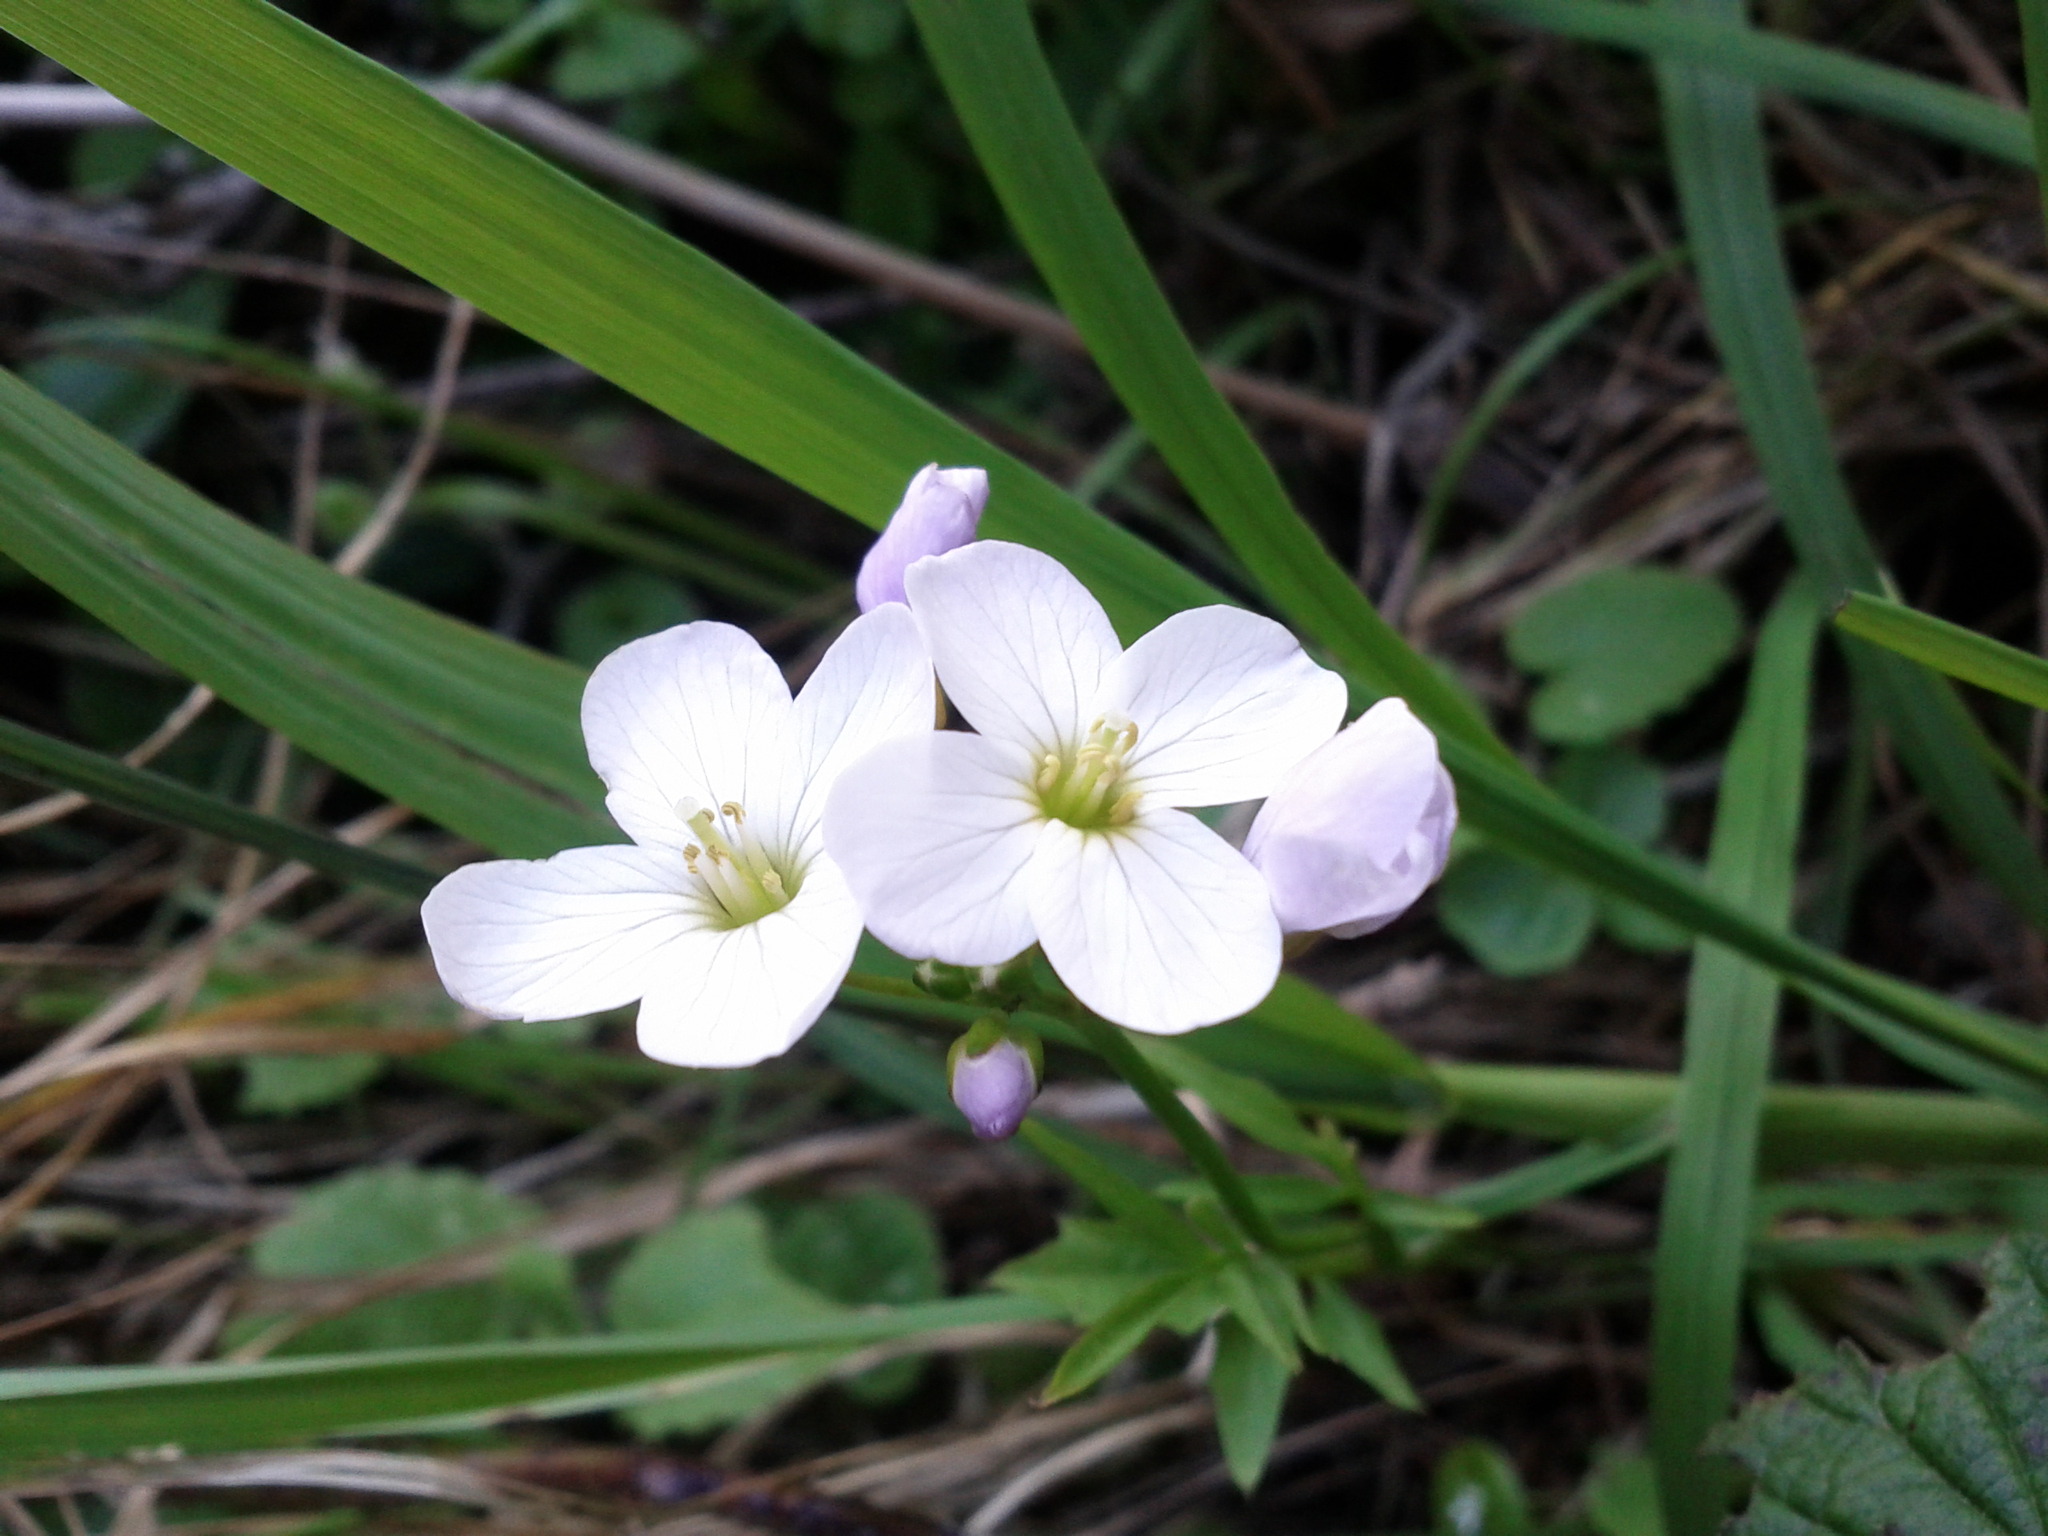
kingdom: Plantae
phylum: Tracheophyta
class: Magnoliopsida
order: Brassicales
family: Brassicaceae
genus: Cardamine
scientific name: Cardamine californica
